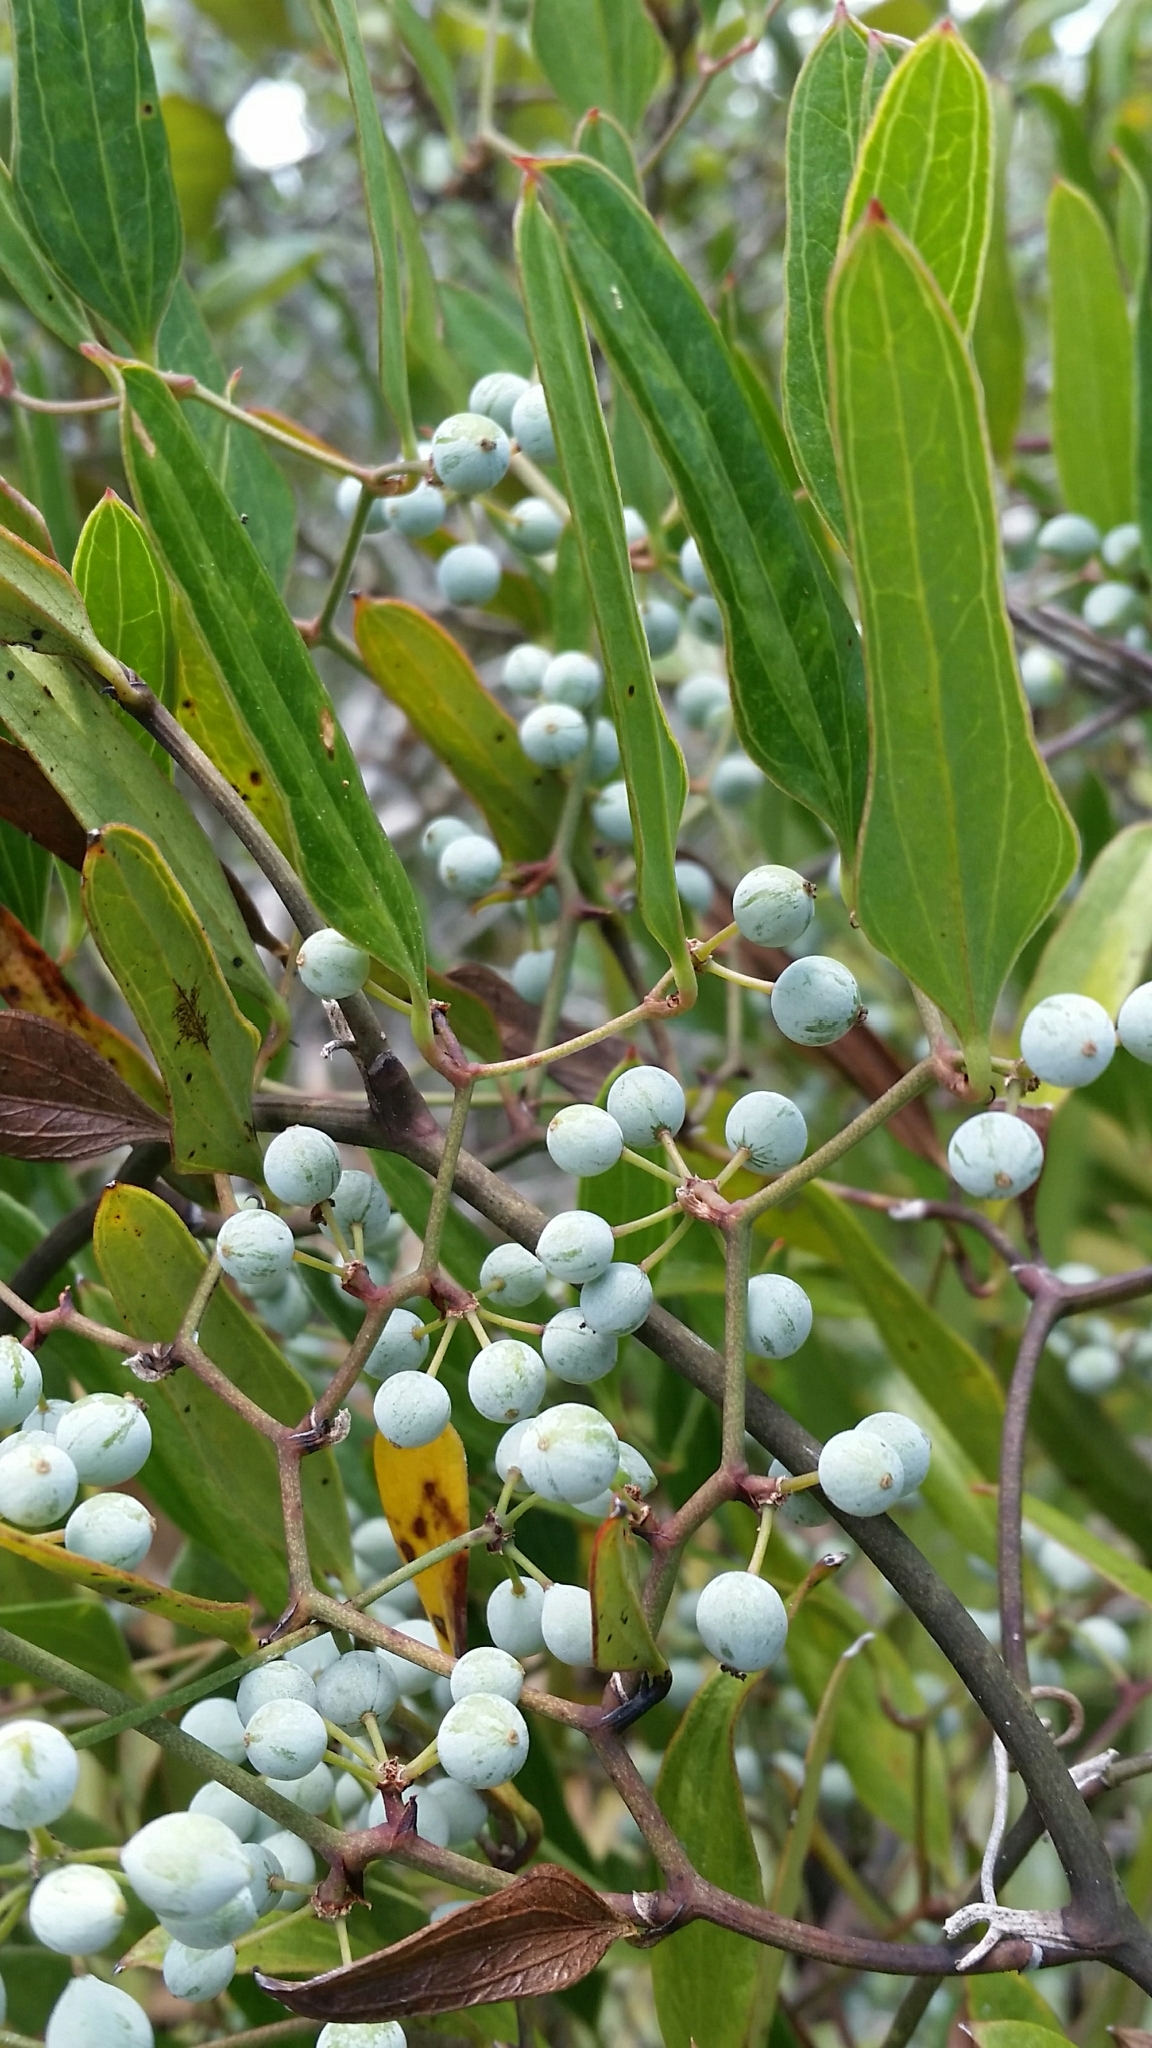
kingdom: Plantae
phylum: Tracheophyta
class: Liliopsida
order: Liliales
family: Smilacaceae
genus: Smilax
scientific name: Smilax auriculata
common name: Wild bamboo
